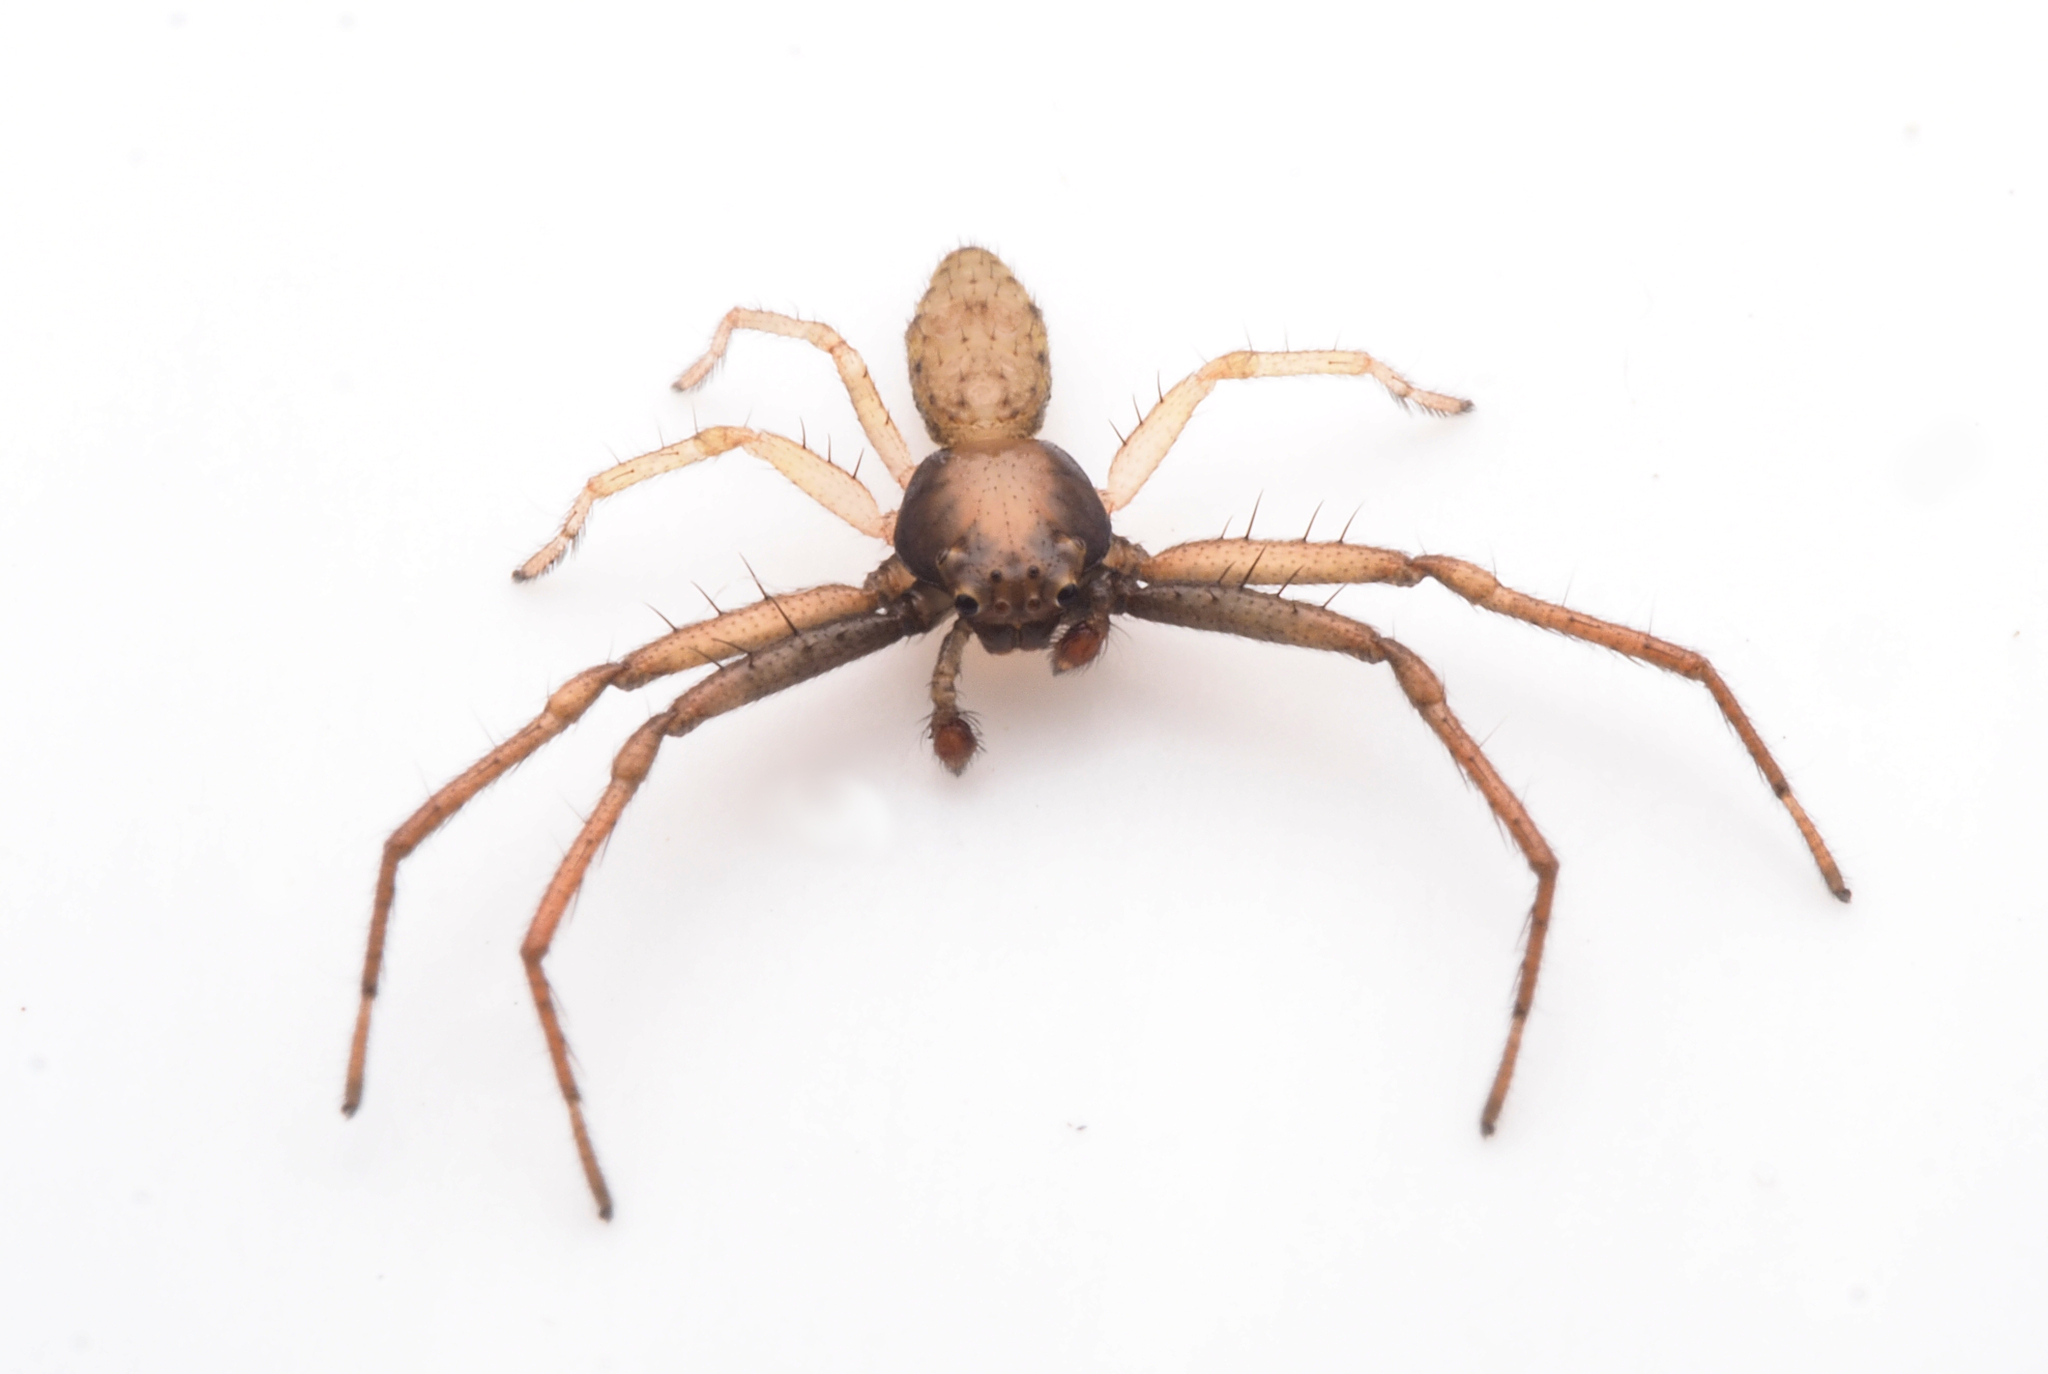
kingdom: Animalia
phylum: Arthropoda
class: Arachnida
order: Araneae
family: Thomisidae
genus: Hedana
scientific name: Hedana
